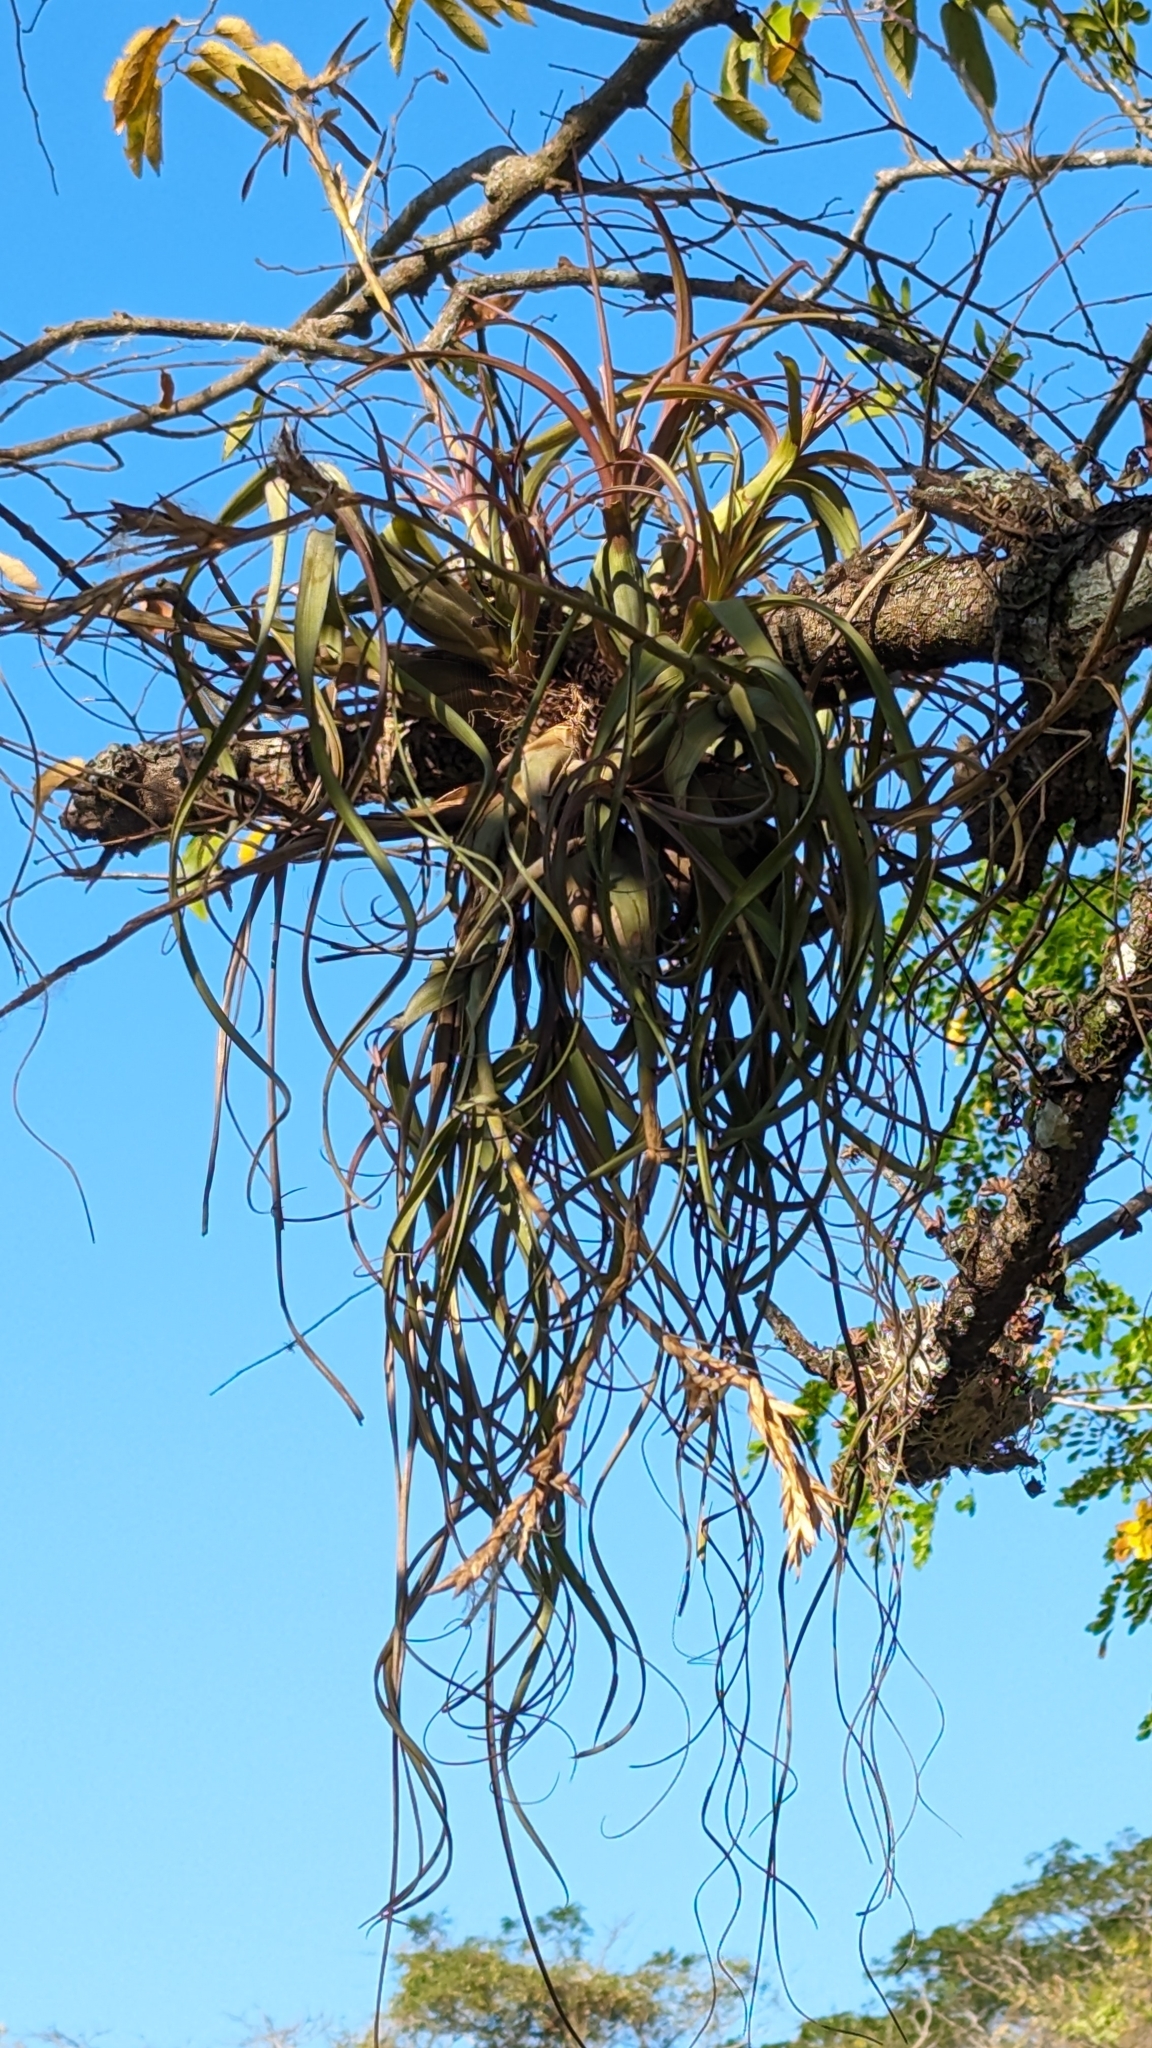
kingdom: Plantae
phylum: Tracheophyta
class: Liliopsida
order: Poales
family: Bromeliaceae
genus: Tillandsia
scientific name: Tillandsia balbisiana
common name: Northern needleleaf
